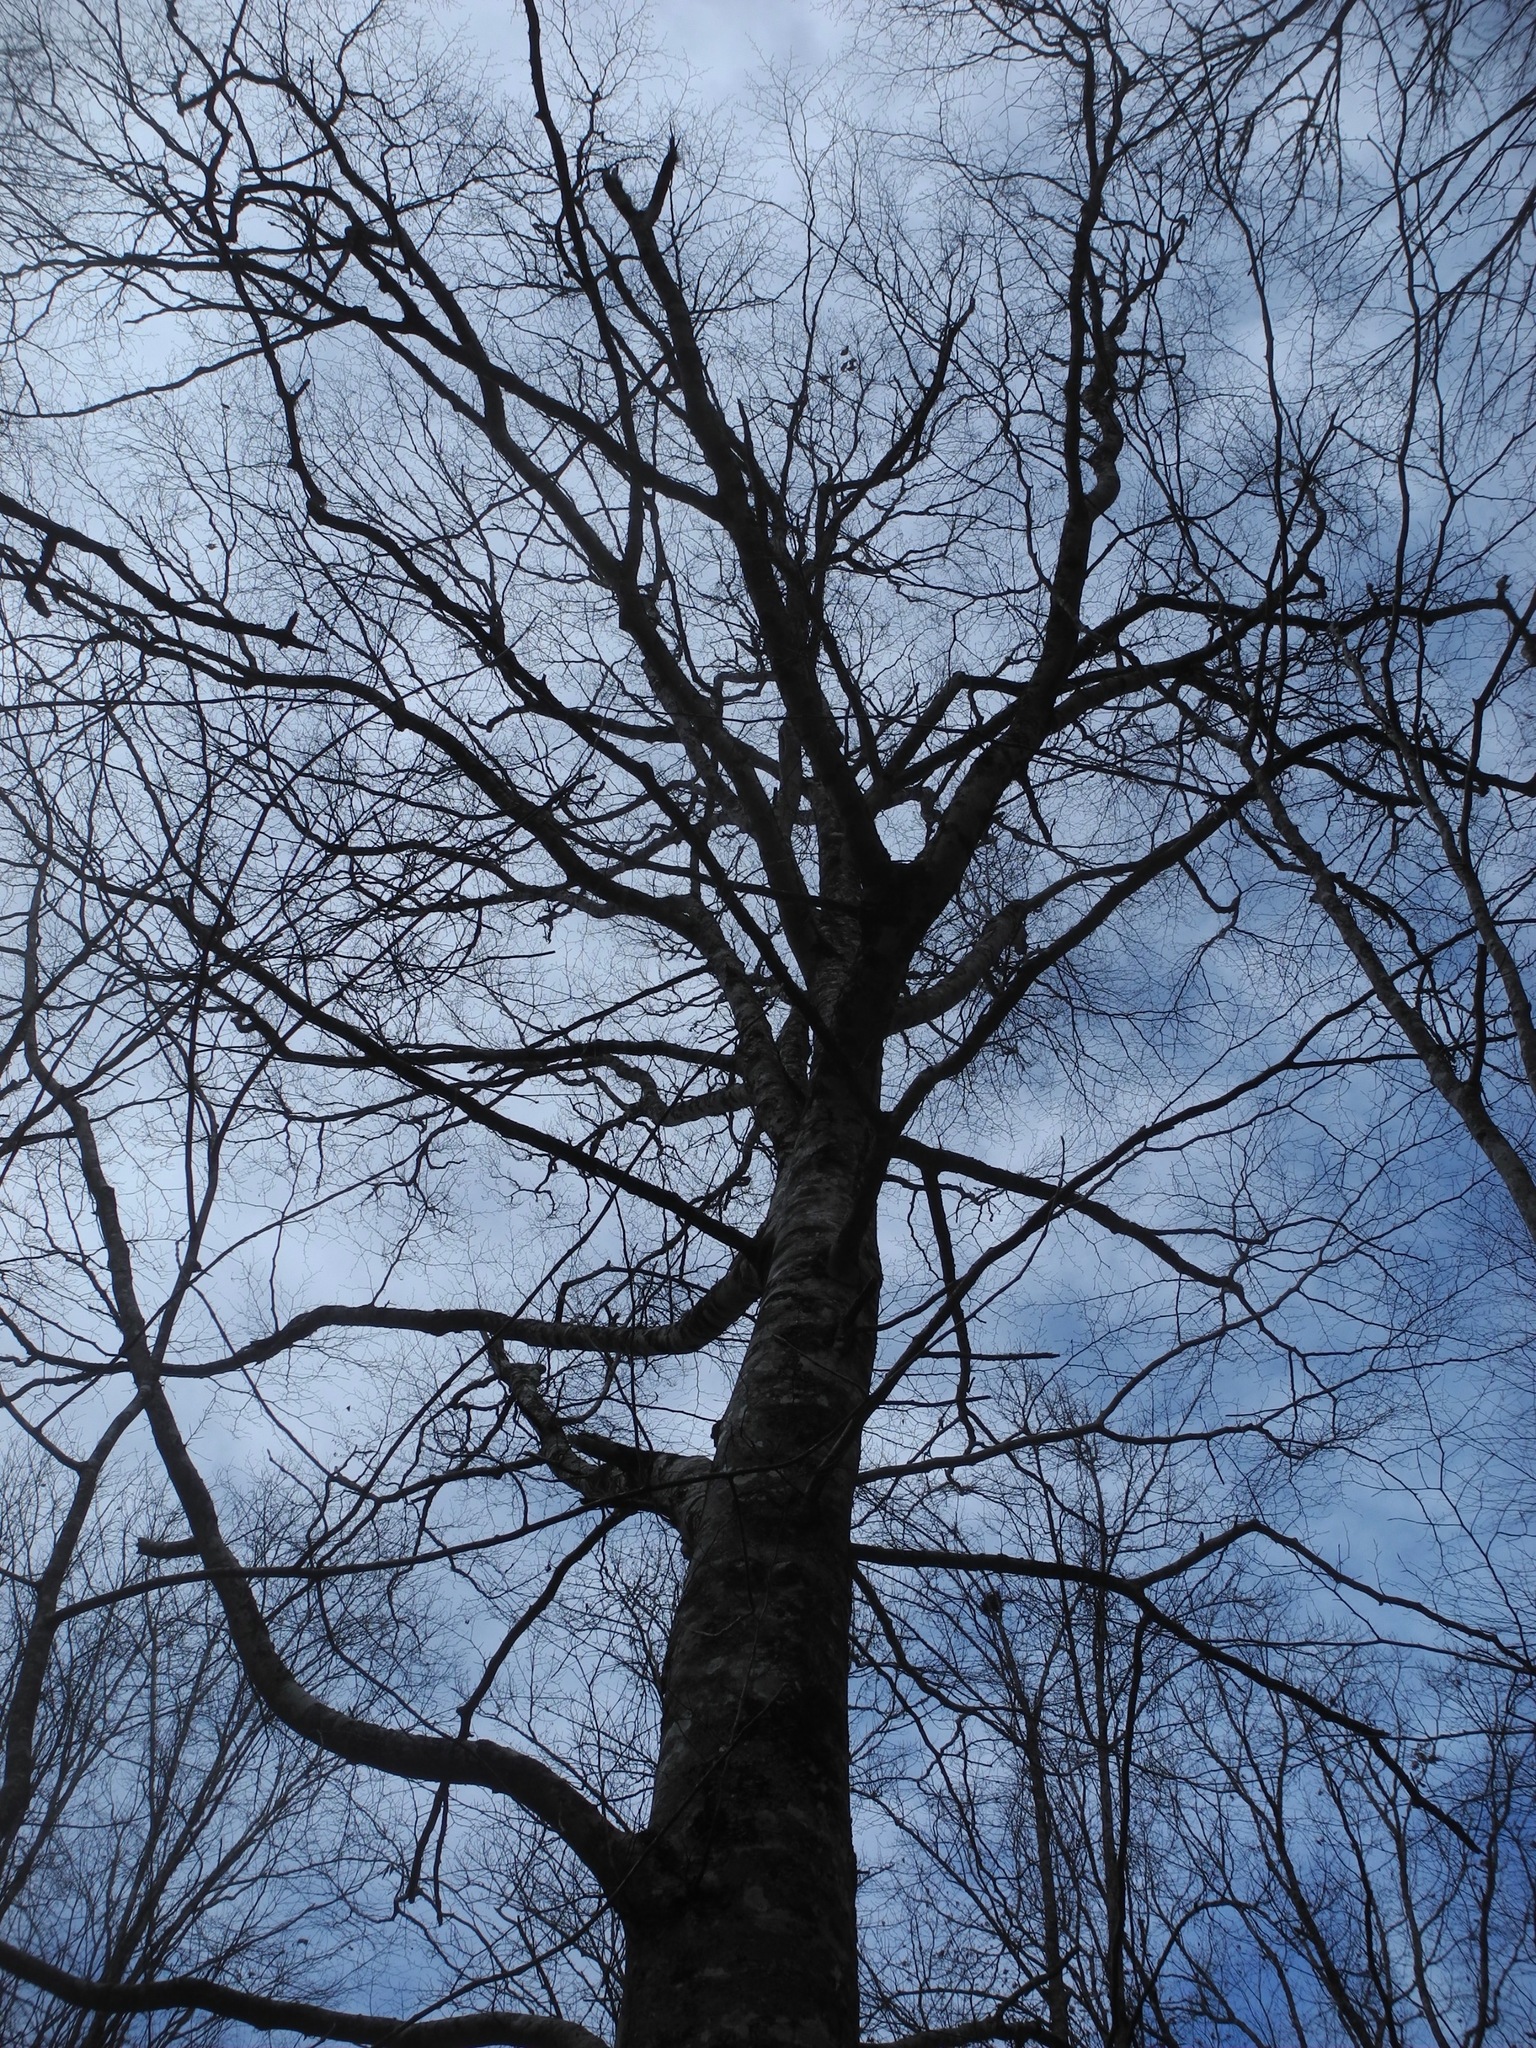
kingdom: Plantae
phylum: Tracheophyta
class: Magnoliopsida
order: Fagales
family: Fagaceae
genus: Fagus
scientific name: Fagus grandifolia
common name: American beech
